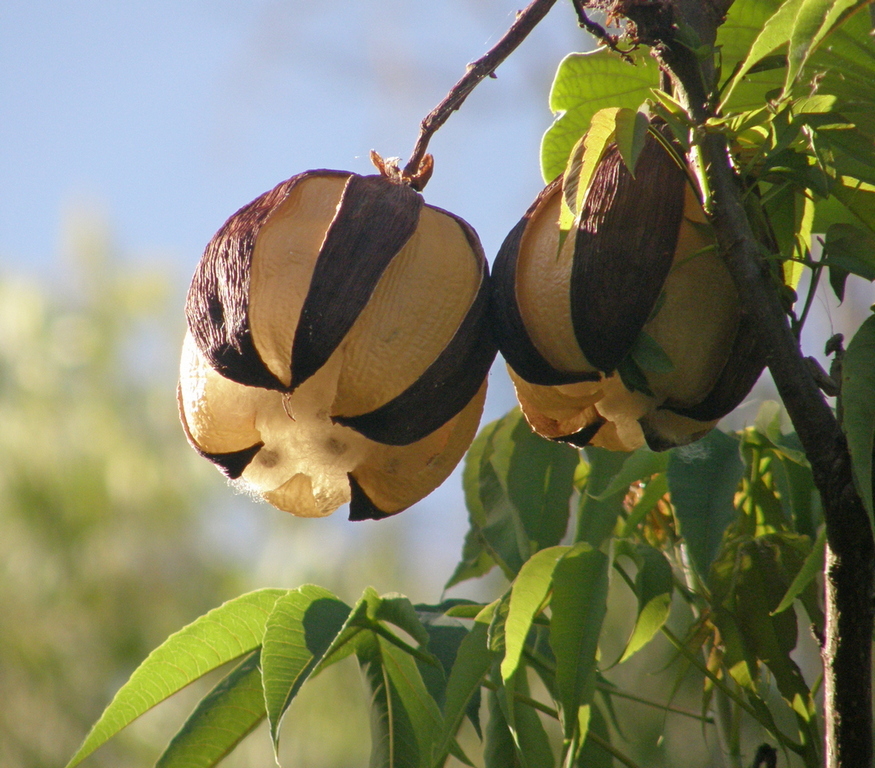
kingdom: Plantae
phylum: Tracheophyta
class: Magnoliopsida
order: Malvales
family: Cochlospermaceae
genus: Cochlospermum
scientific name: Cochlospermum gillivraei
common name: Cottontree
